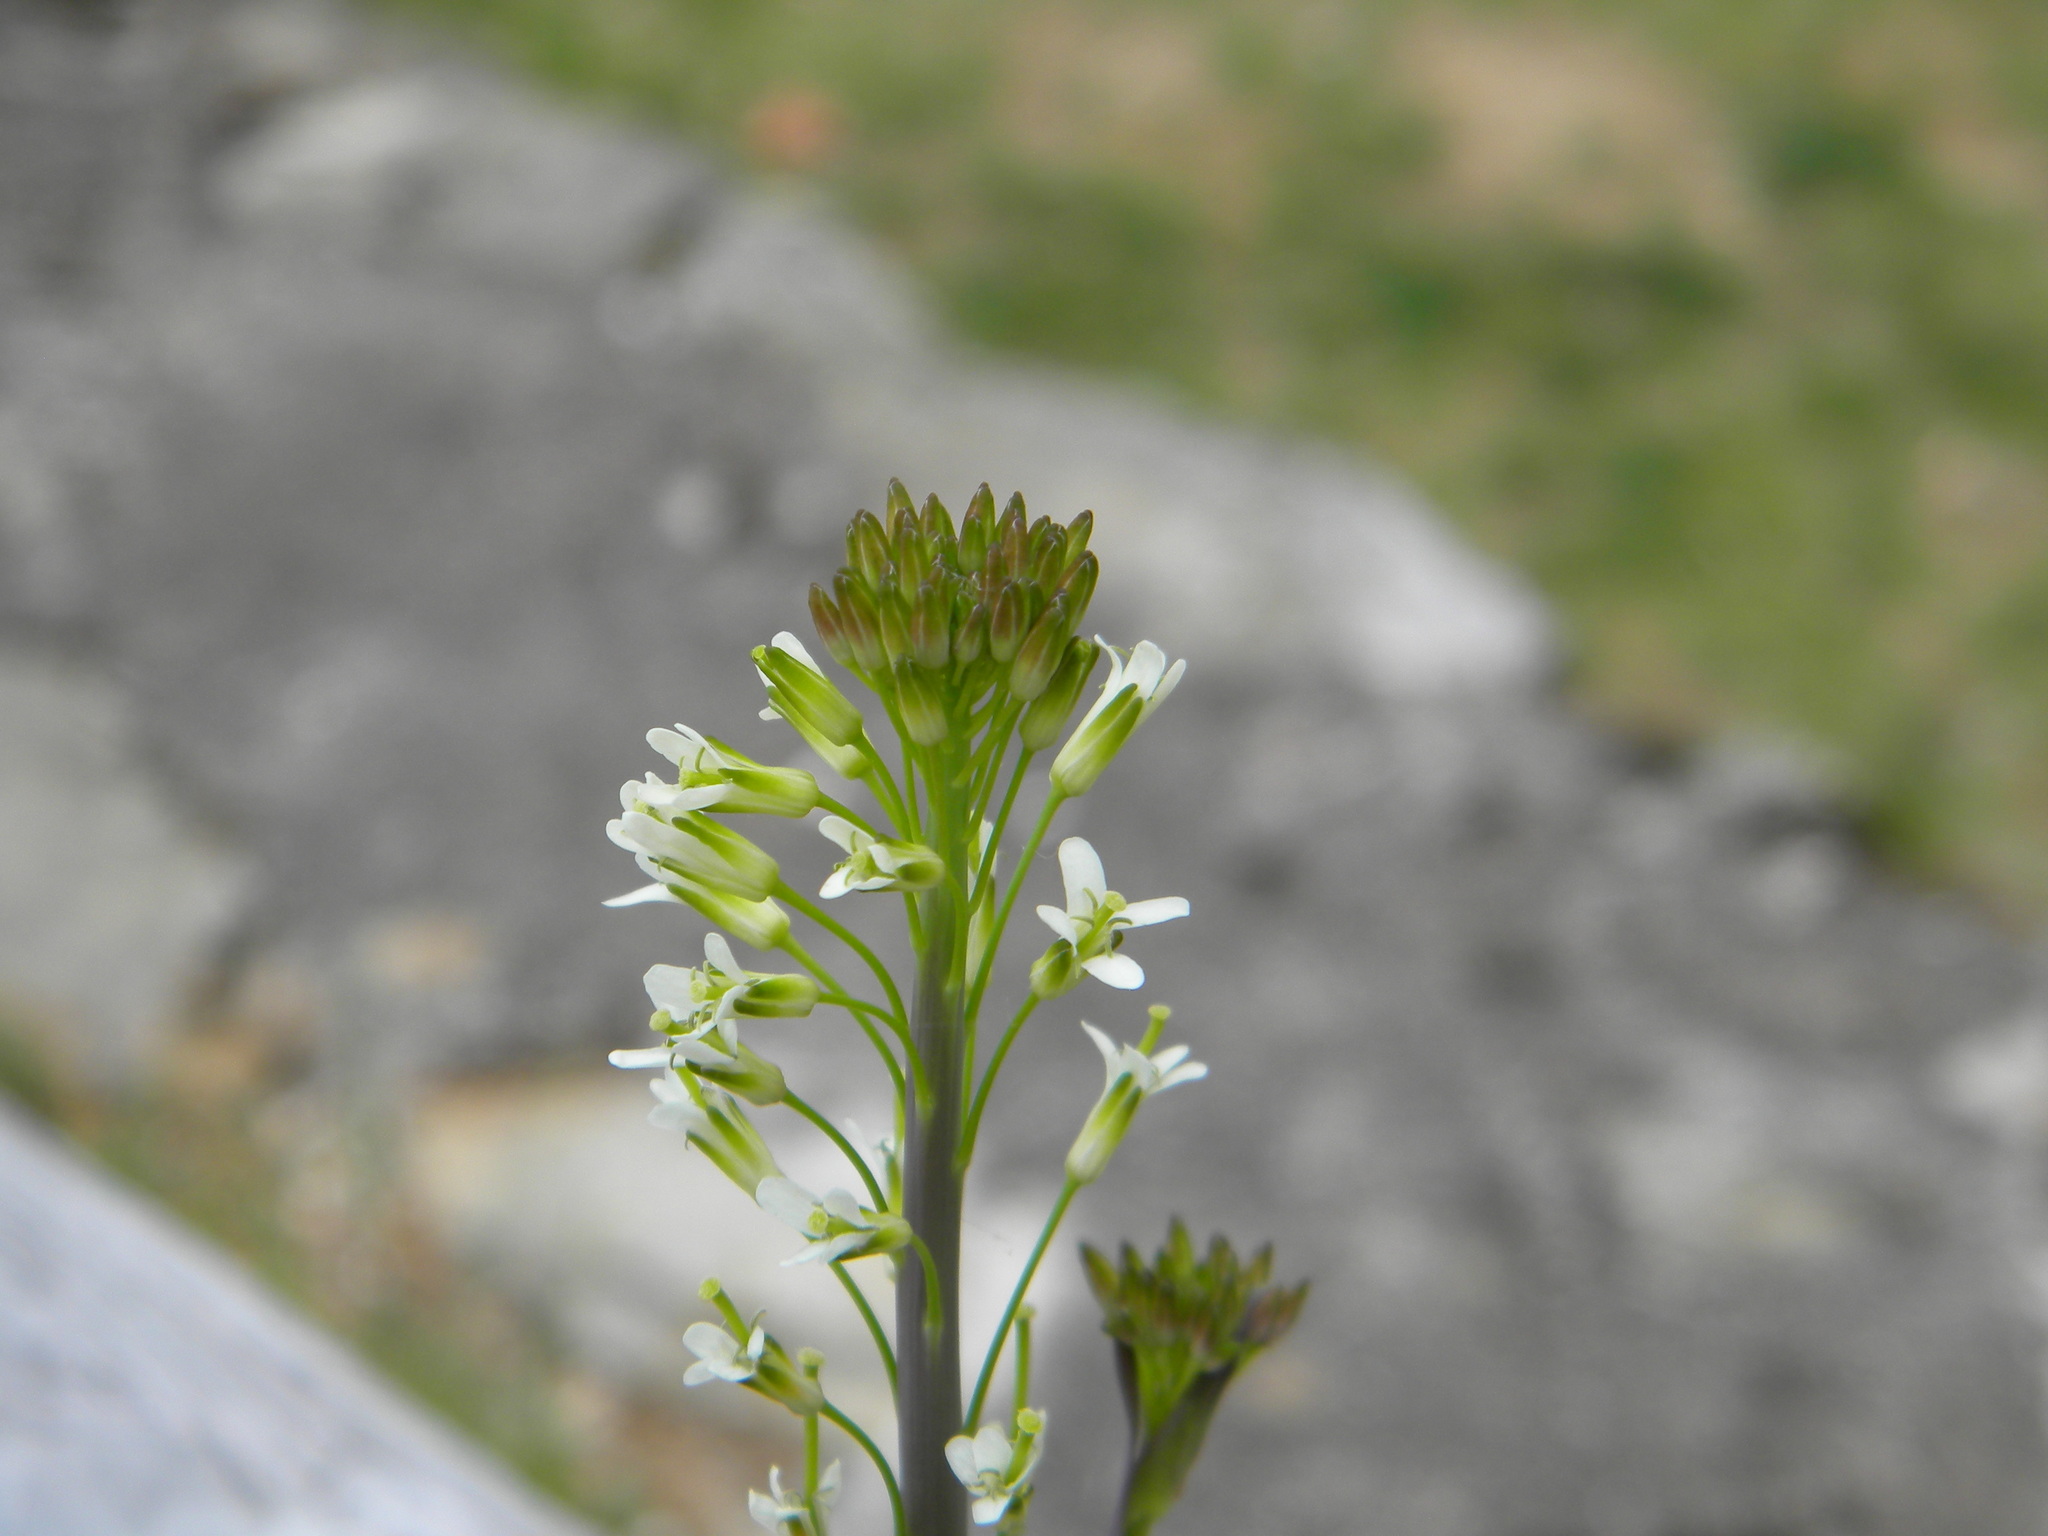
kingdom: Plantae
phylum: Tracheophyta
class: Magnoliopsida
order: Brassicales
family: Brassicaceae
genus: Turritis
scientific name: Turritis glabra
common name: Tower rockcress
